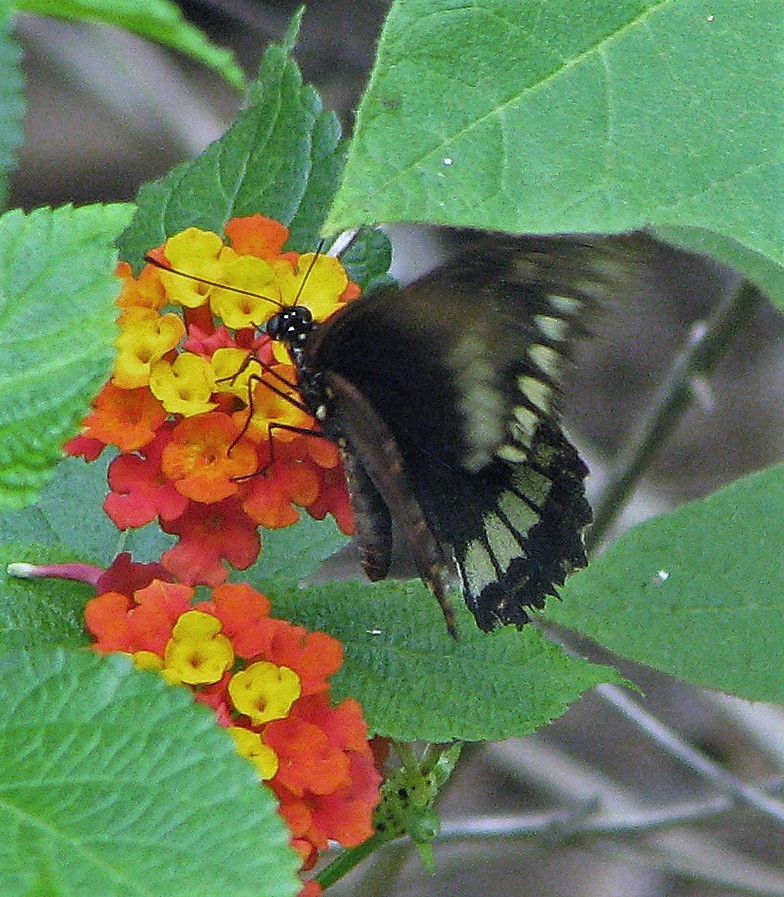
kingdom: Animalia
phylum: Arthropoda
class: Insecta
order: Lepidoptera
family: Papilionidae
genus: Battus
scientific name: Battus polydamas
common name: Polydamas swallowtail
